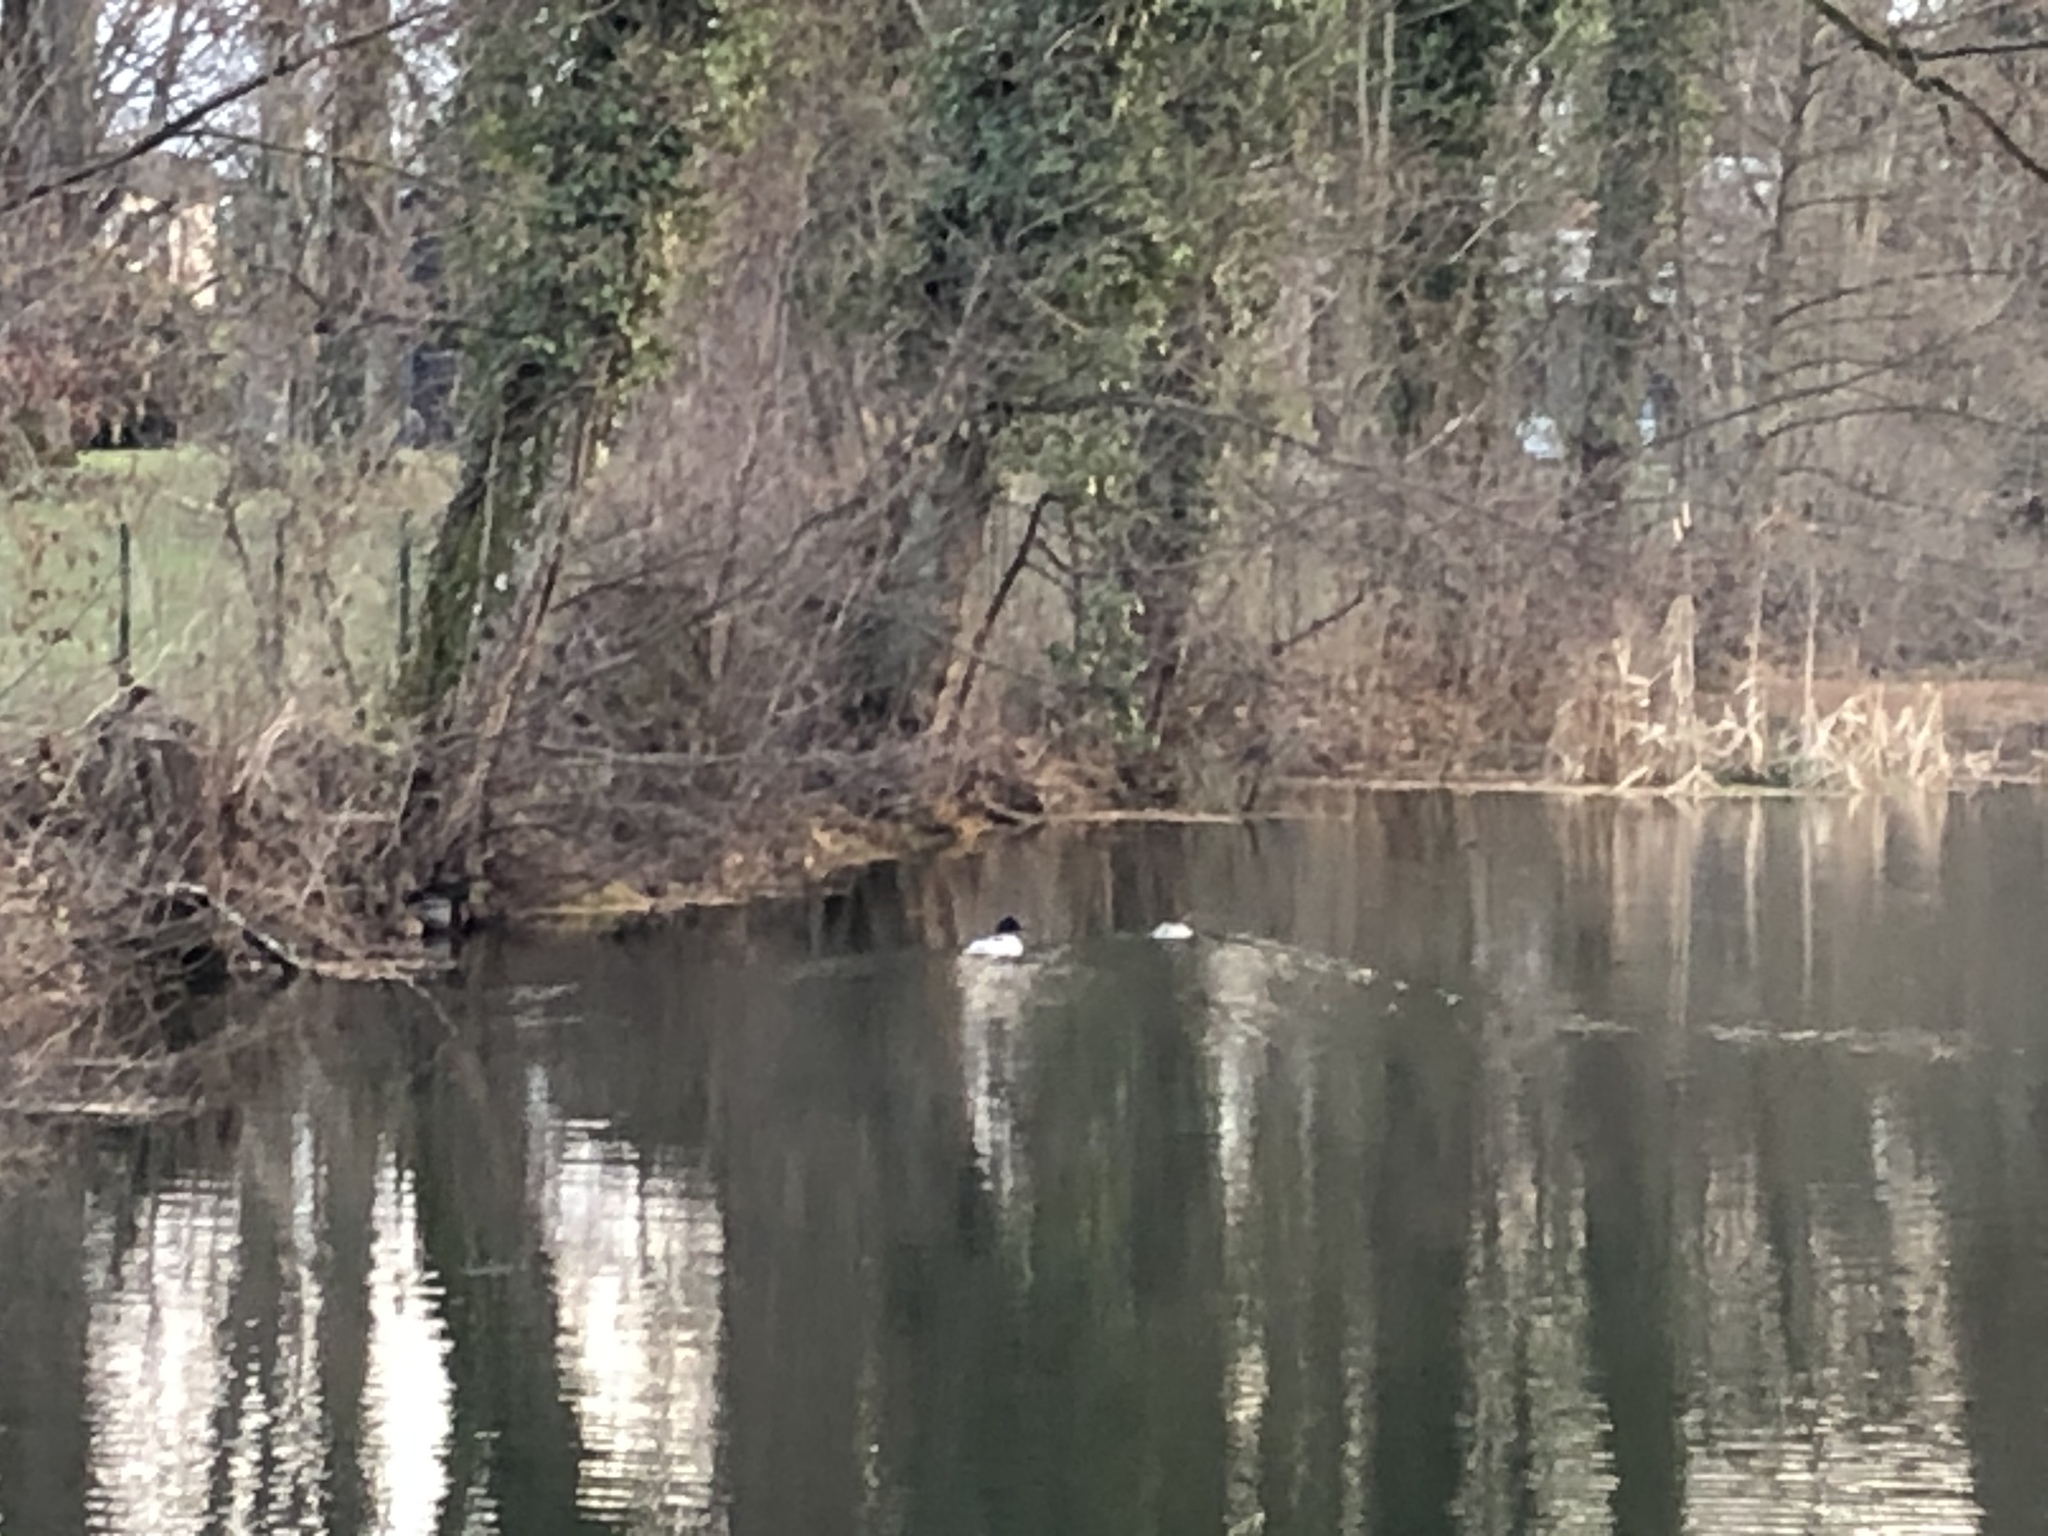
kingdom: Animalia
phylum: Chordata
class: Aves
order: Anseriformes
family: Anatidae
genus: Mergus
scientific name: Mergus merganser
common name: Common merganser
